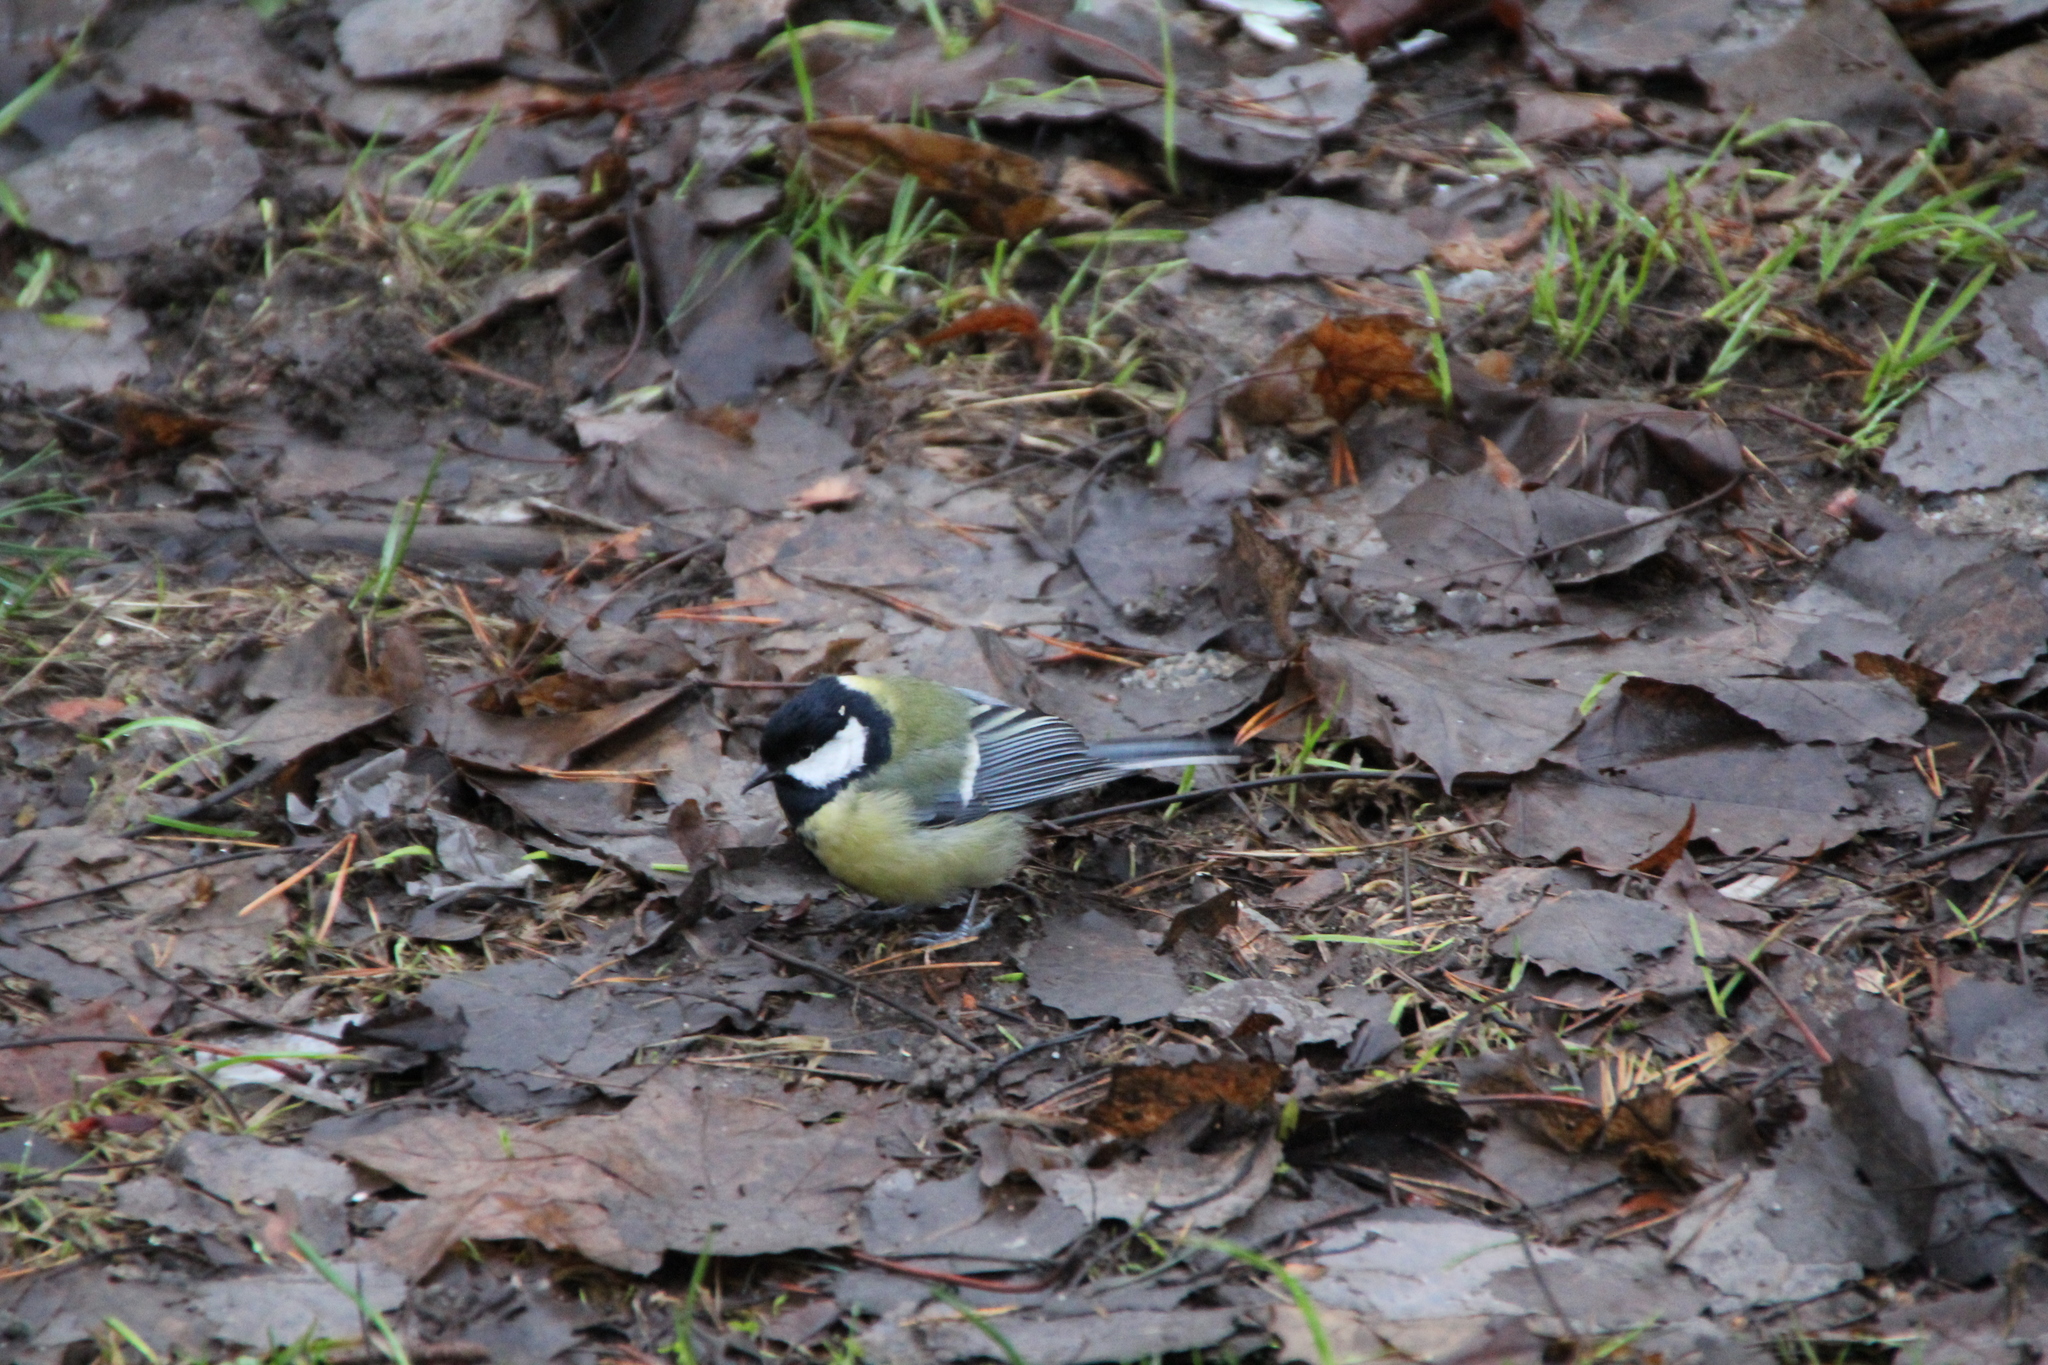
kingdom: Animalia
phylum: Chordata
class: Aves
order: Passeriformes
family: Paridae
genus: Parus
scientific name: Parus major
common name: Great tit
